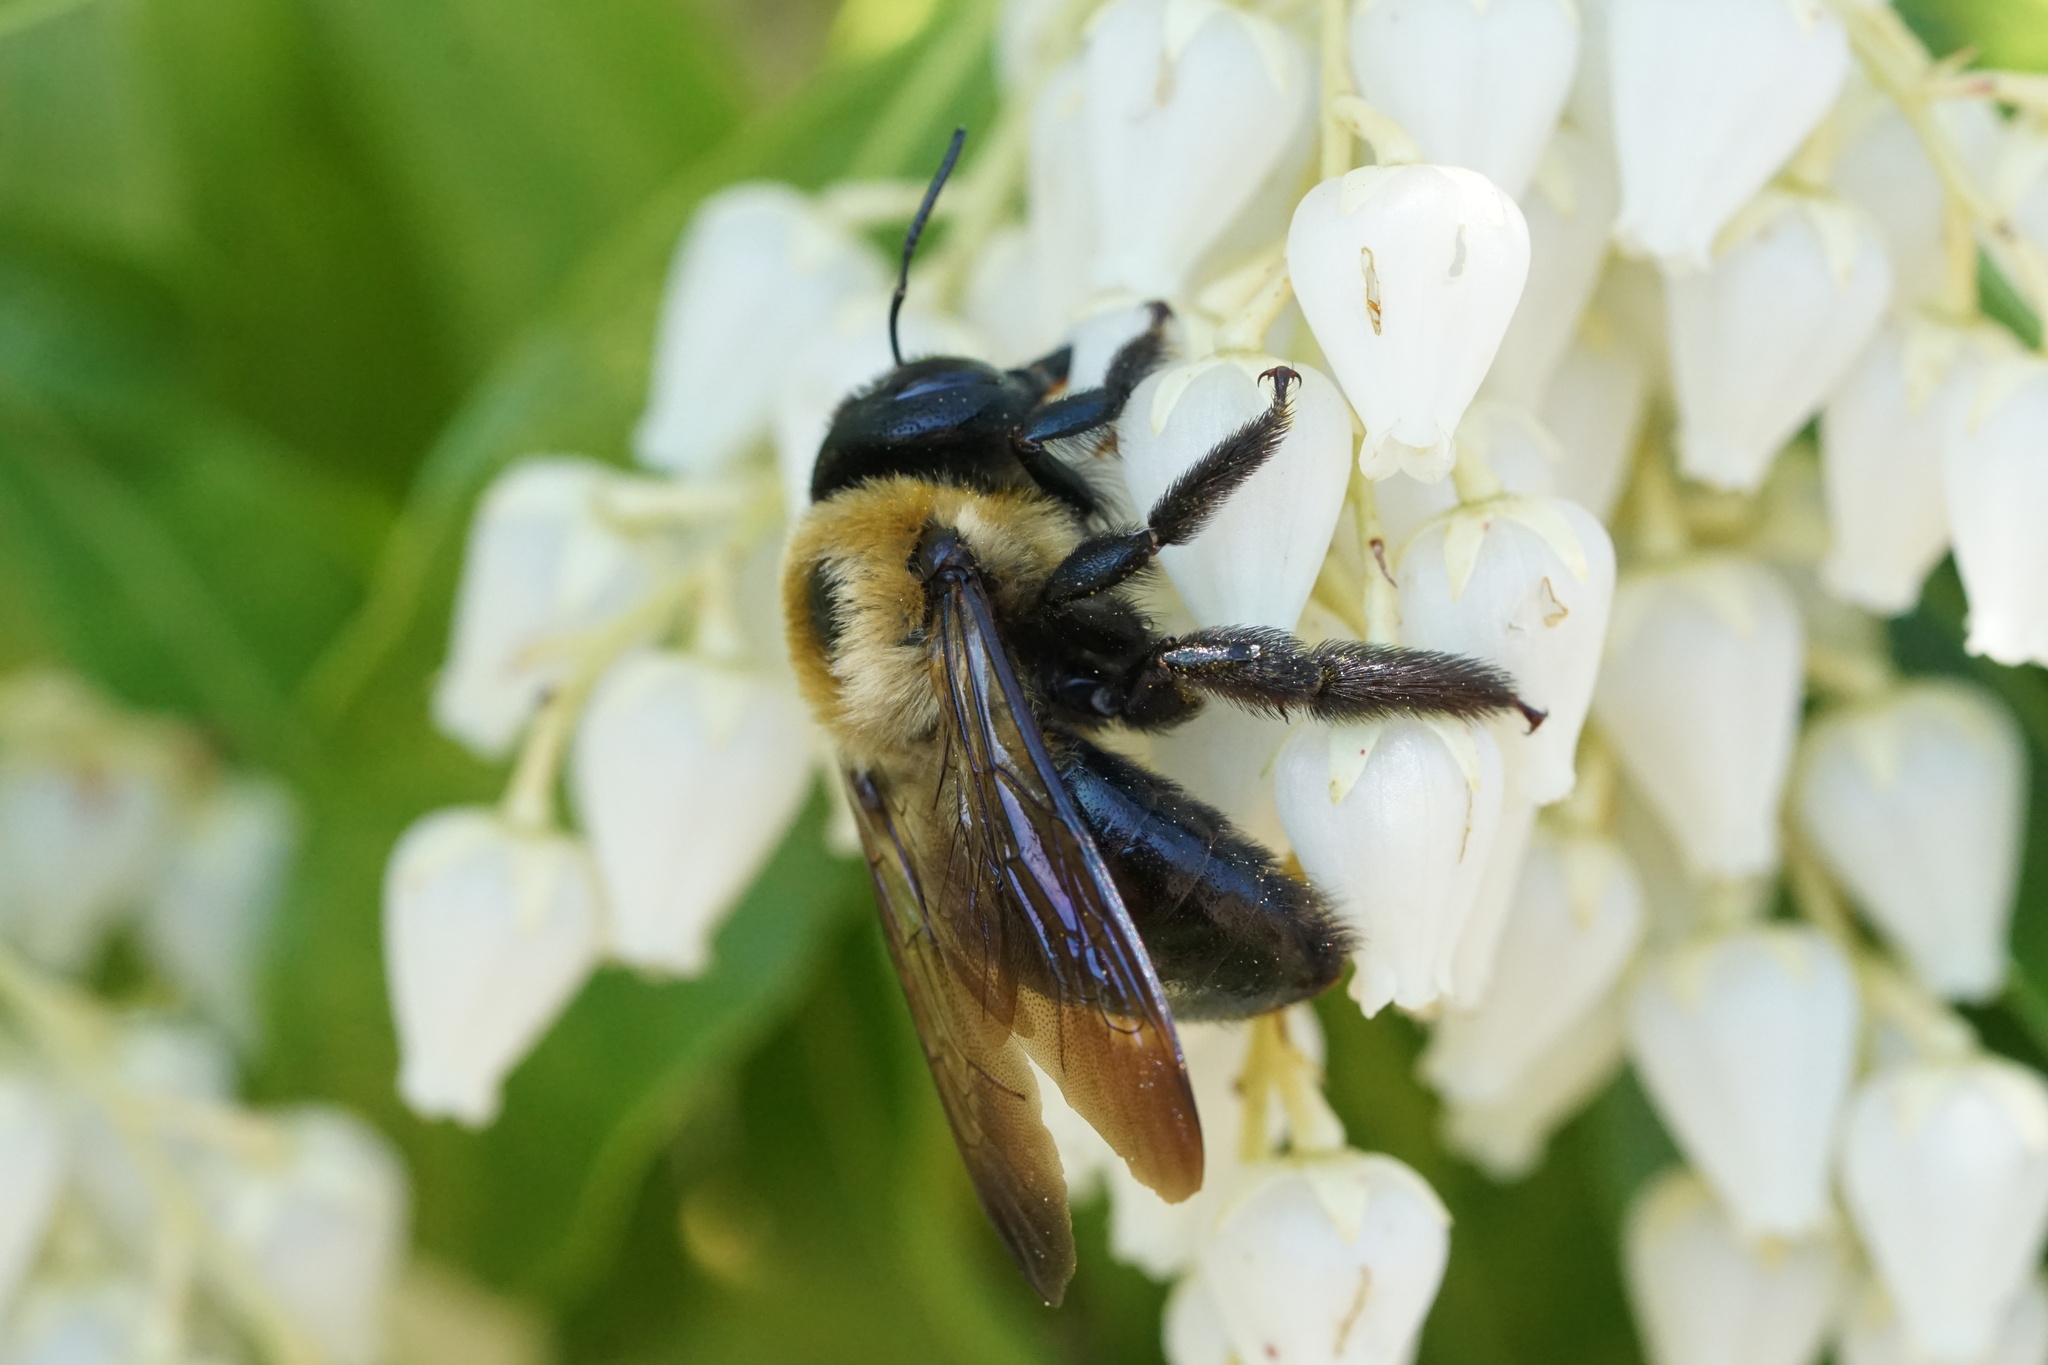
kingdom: Animalia
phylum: Arthropoda
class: Insecta
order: Hymenoptera
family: Apidae
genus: Xylocopa
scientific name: Xylocopa virginica
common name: Carpenter bee
